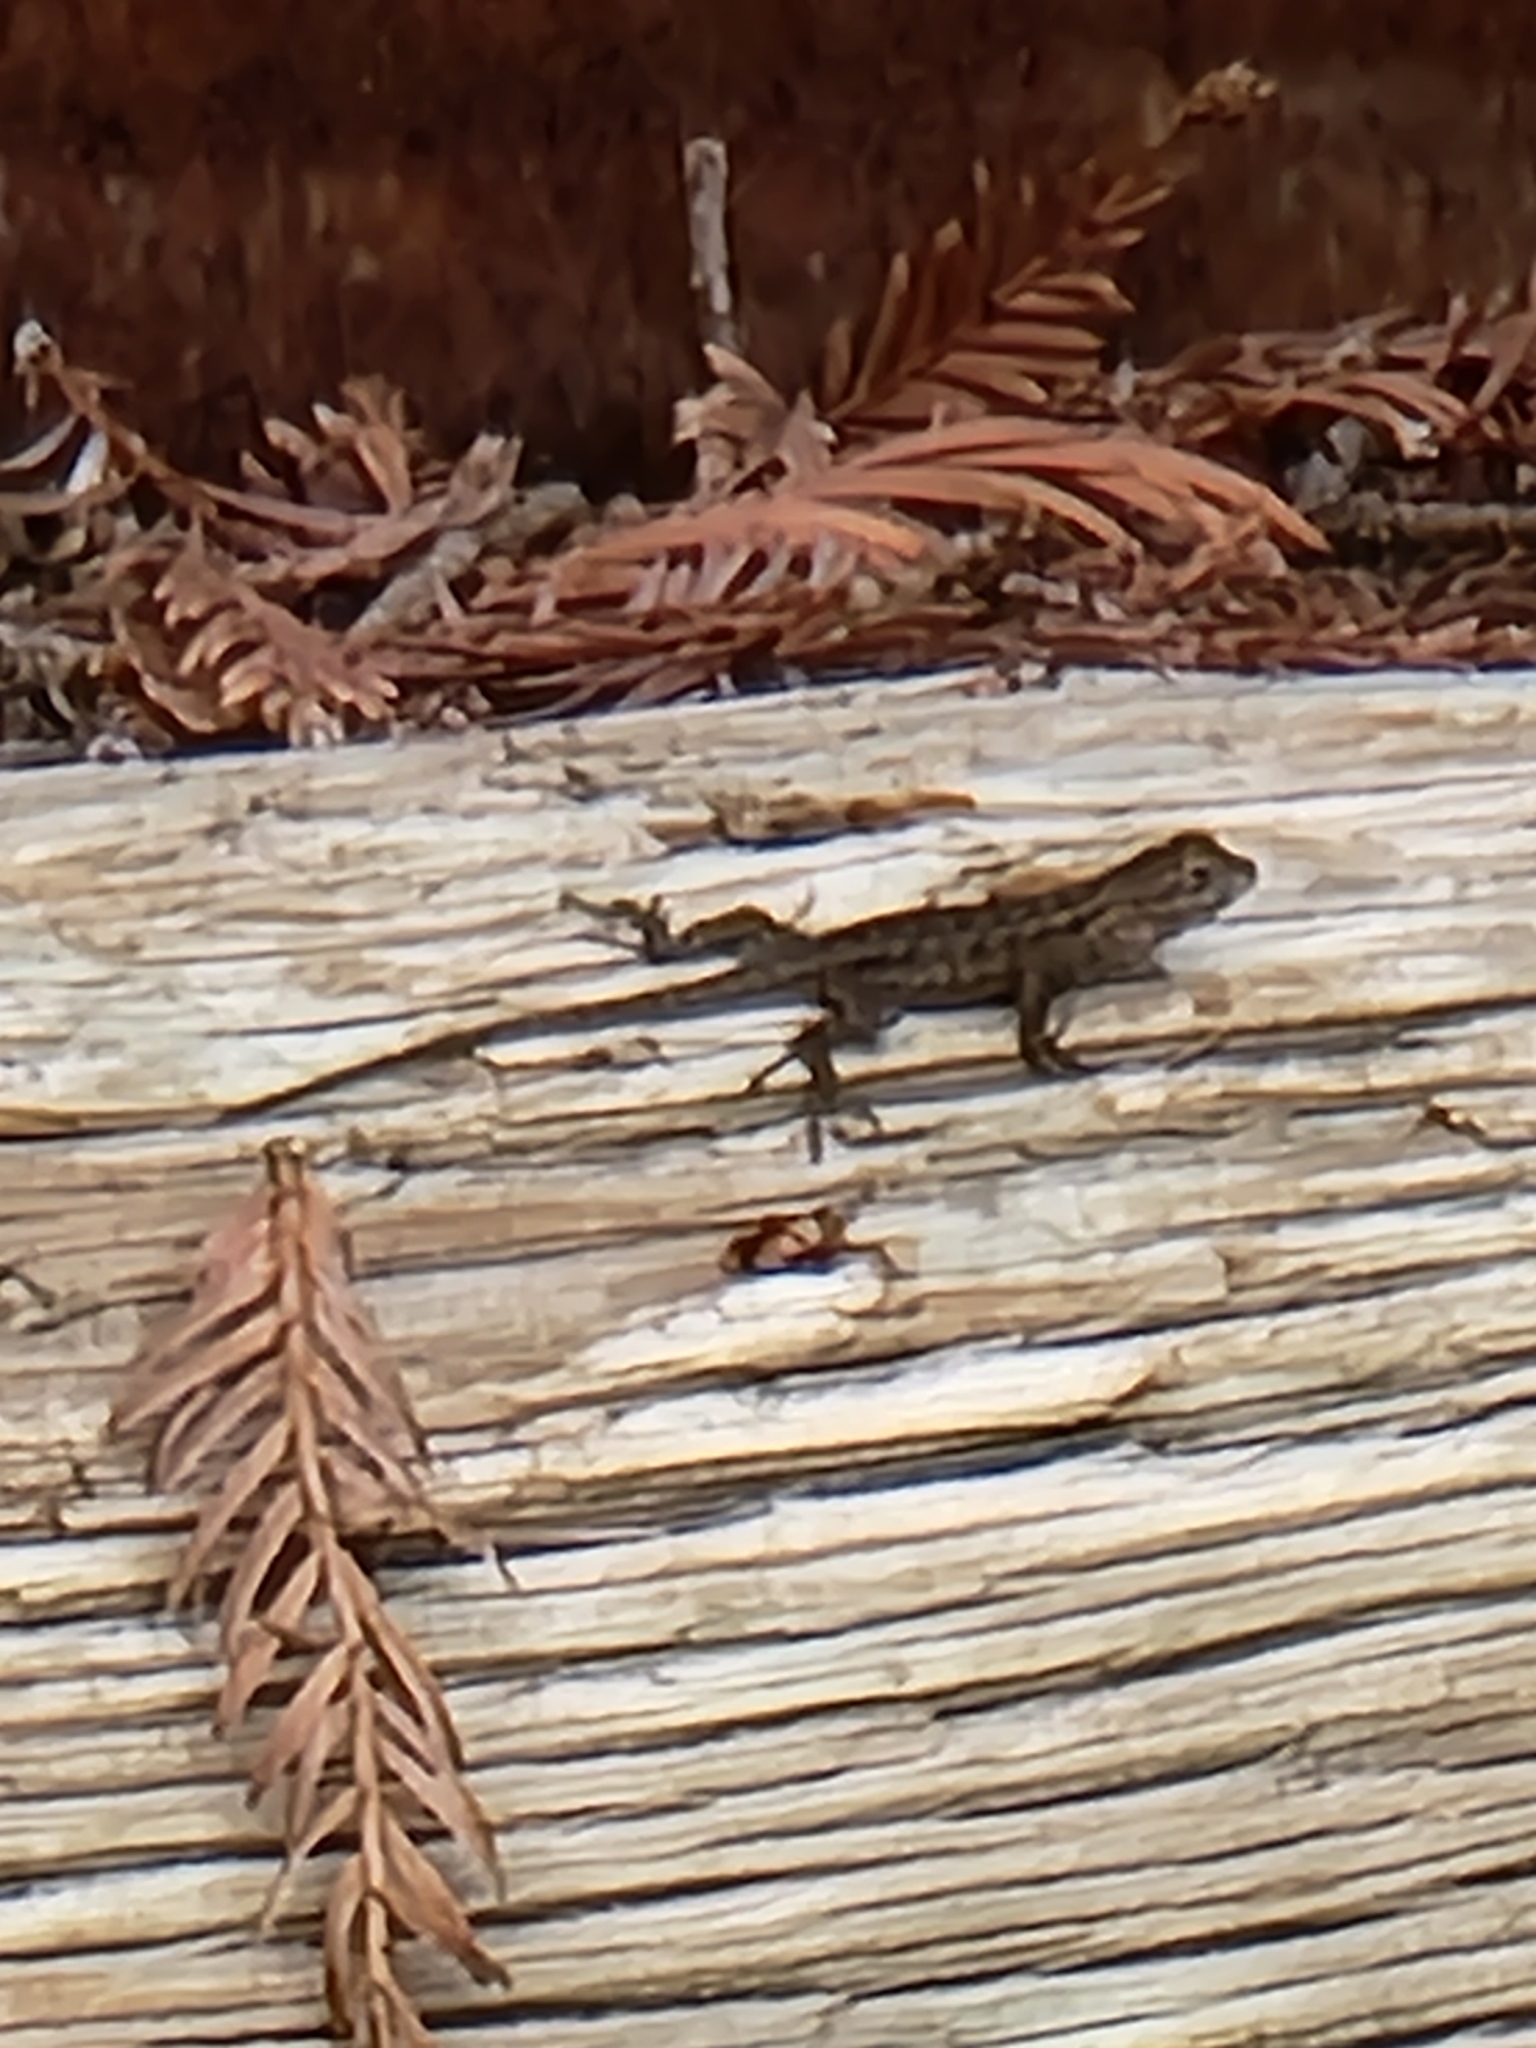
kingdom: Animalia
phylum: Chordata
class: Squamata
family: Phrynosomatidae
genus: Sceloporus
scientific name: Sceloporus occidentalis
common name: Western fence lizard
